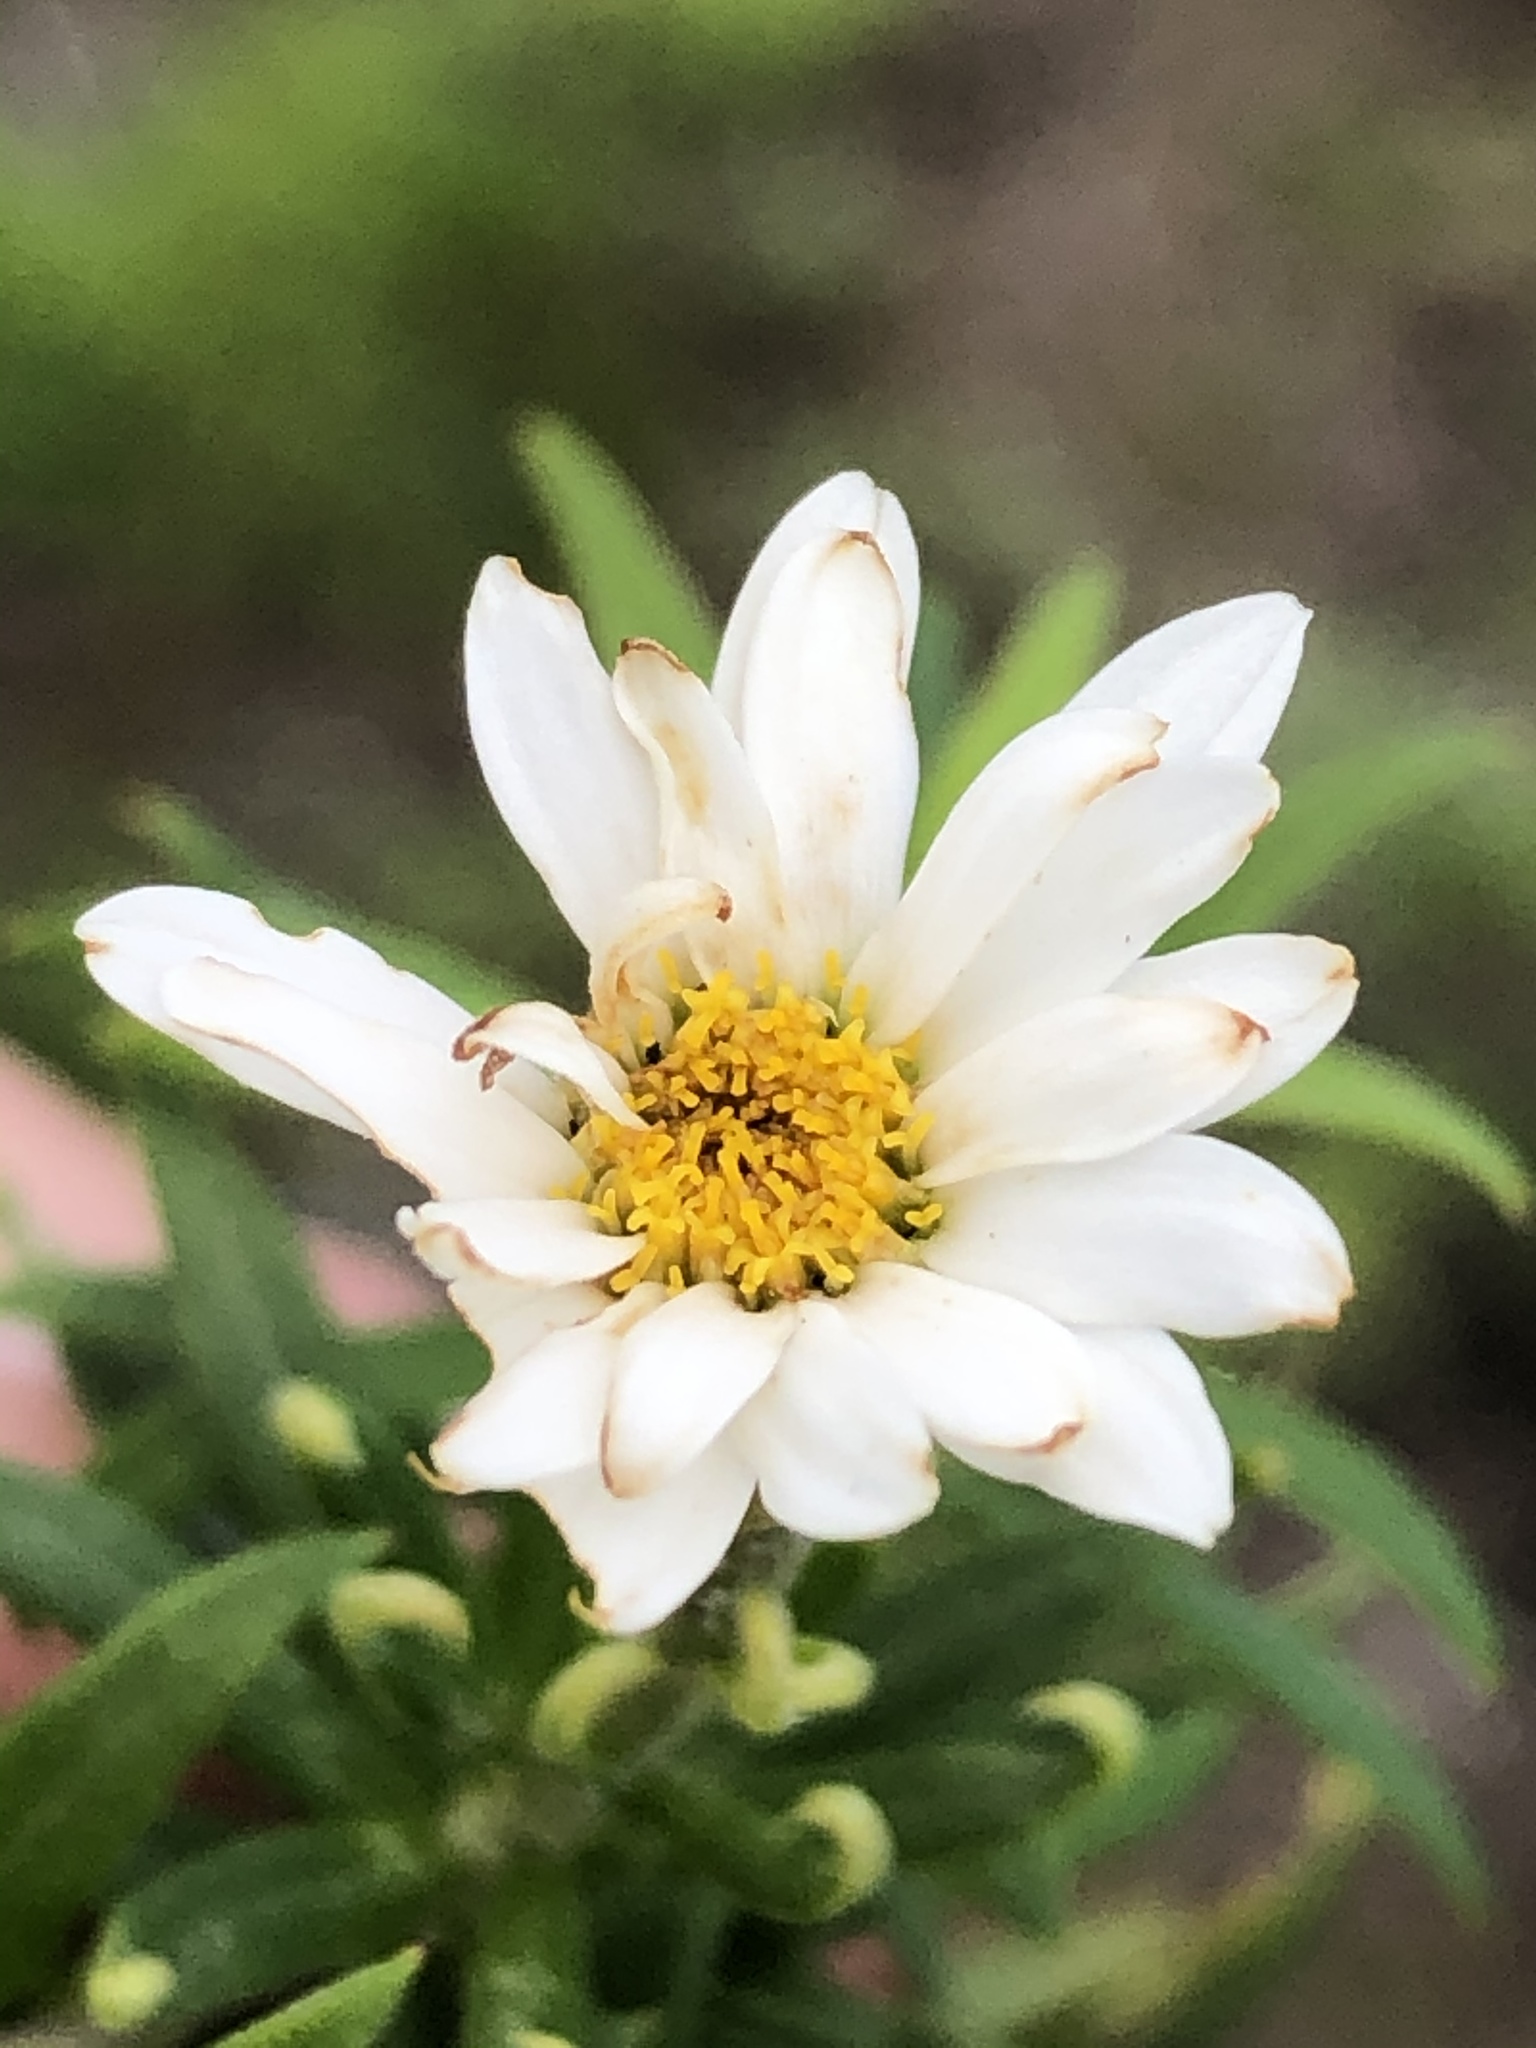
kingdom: Plantae
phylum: Tracheophyta
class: Magnoliopsida
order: Asterales
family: Asteraceae
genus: Osmitopsis
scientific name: Osmitopsis osmitoides
